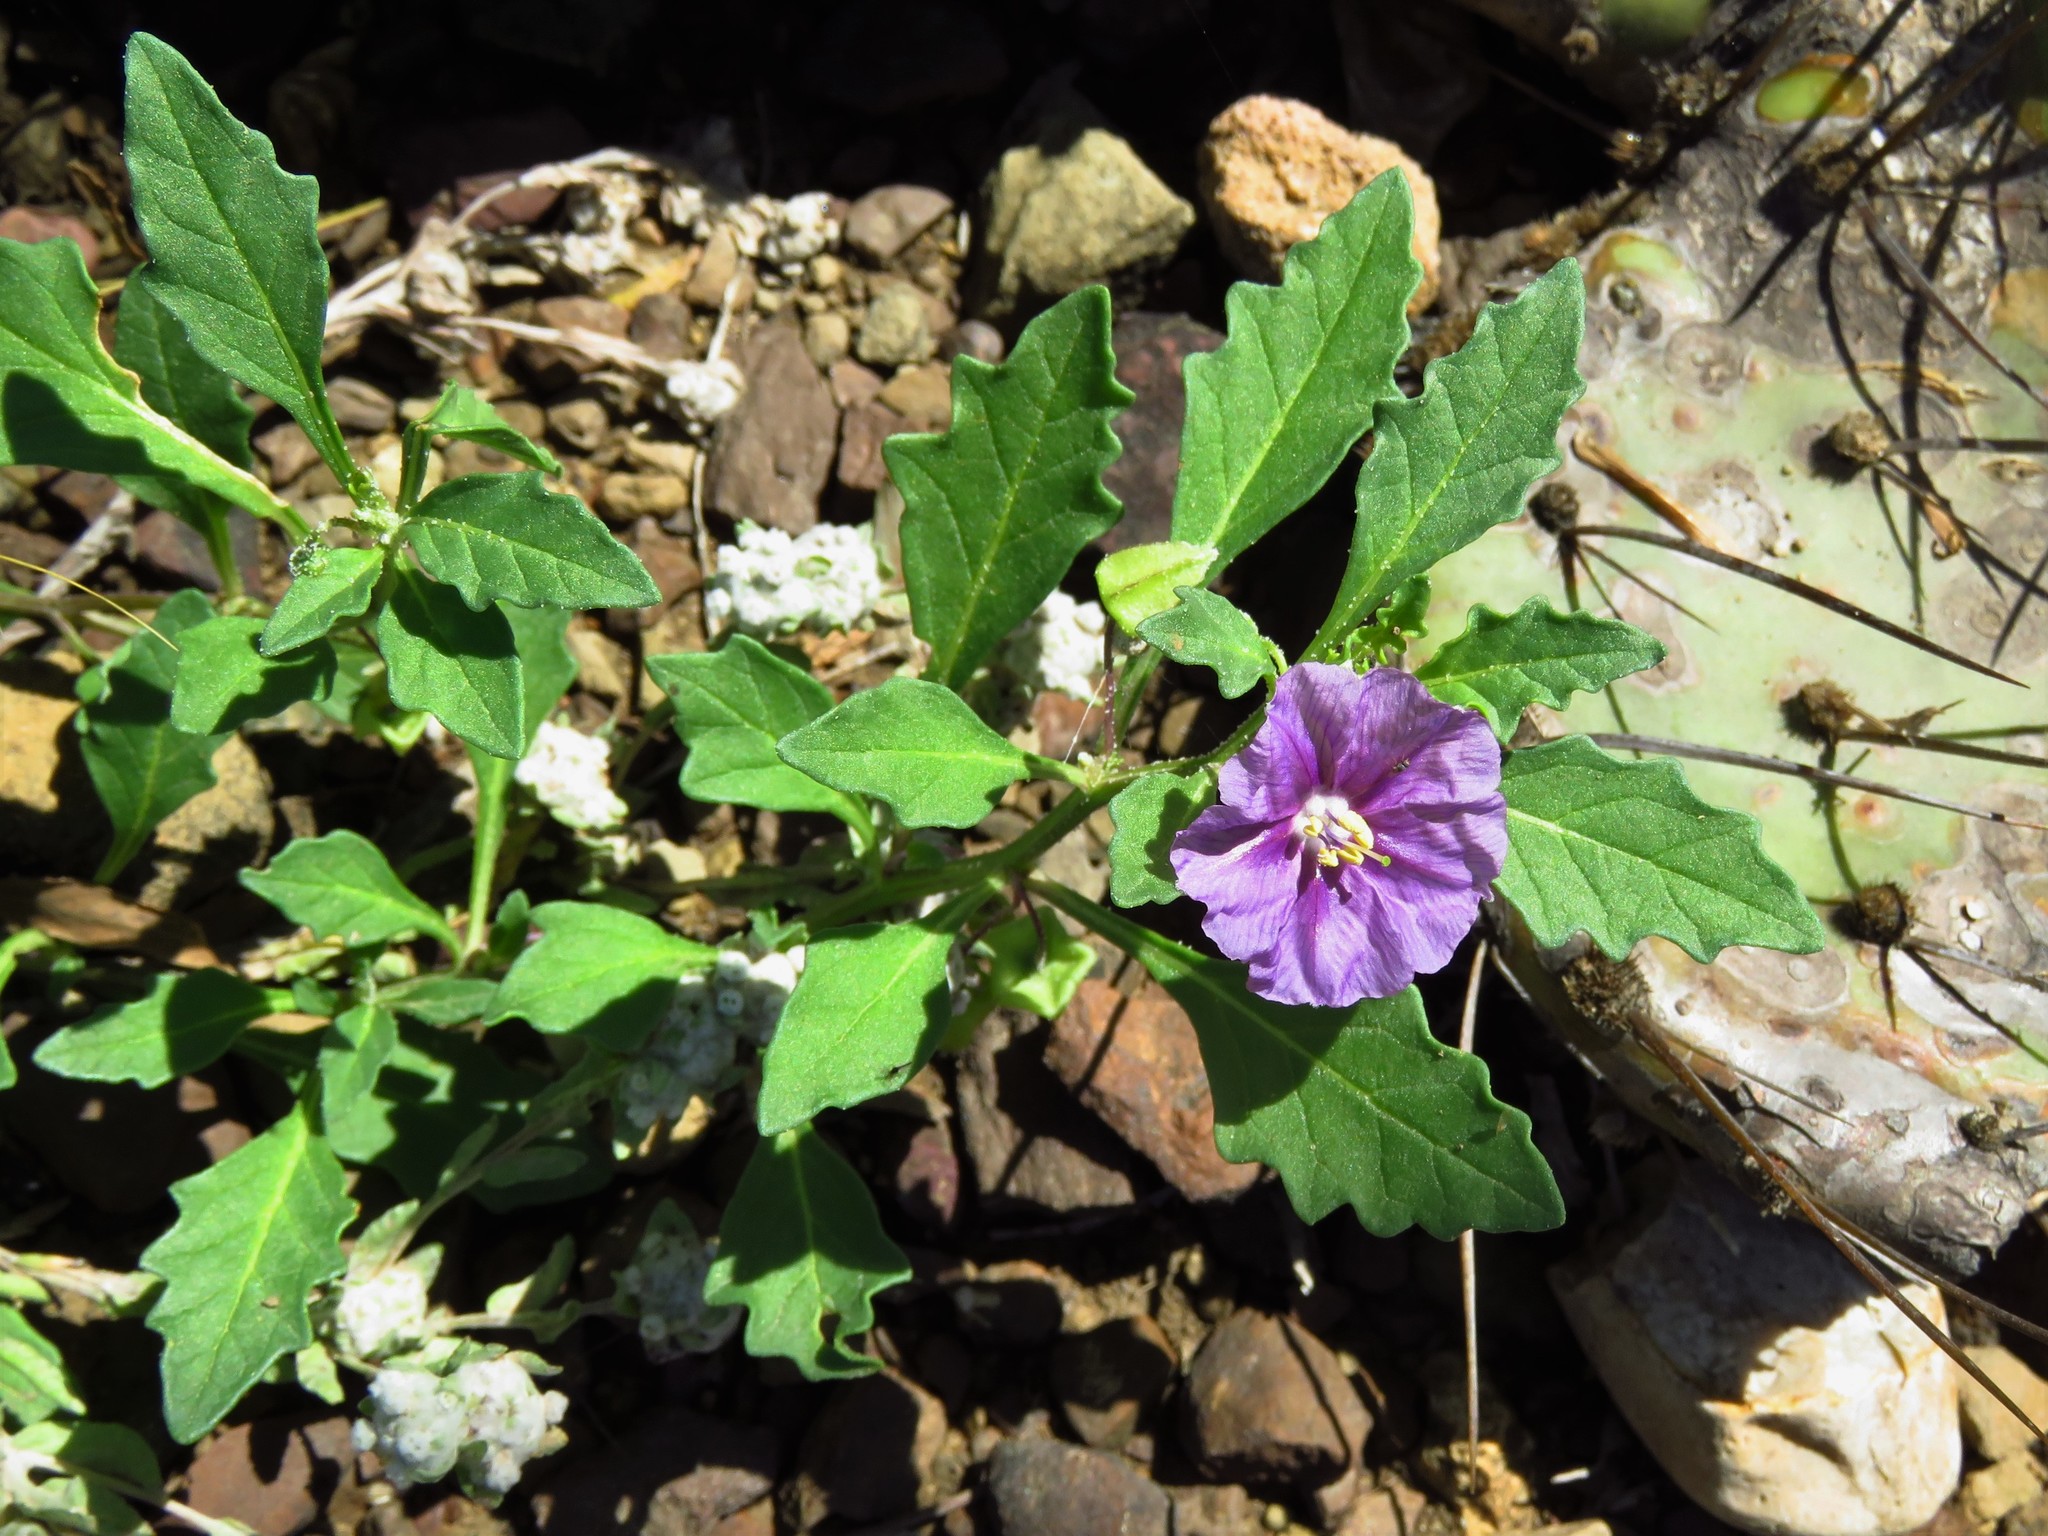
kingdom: Plantae
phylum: Tracheophyta
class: Magnoliopsida
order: Solanales
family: Solanaceae
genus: Quincula
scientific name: Quincula lobata
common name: Purple-ground-cherry
